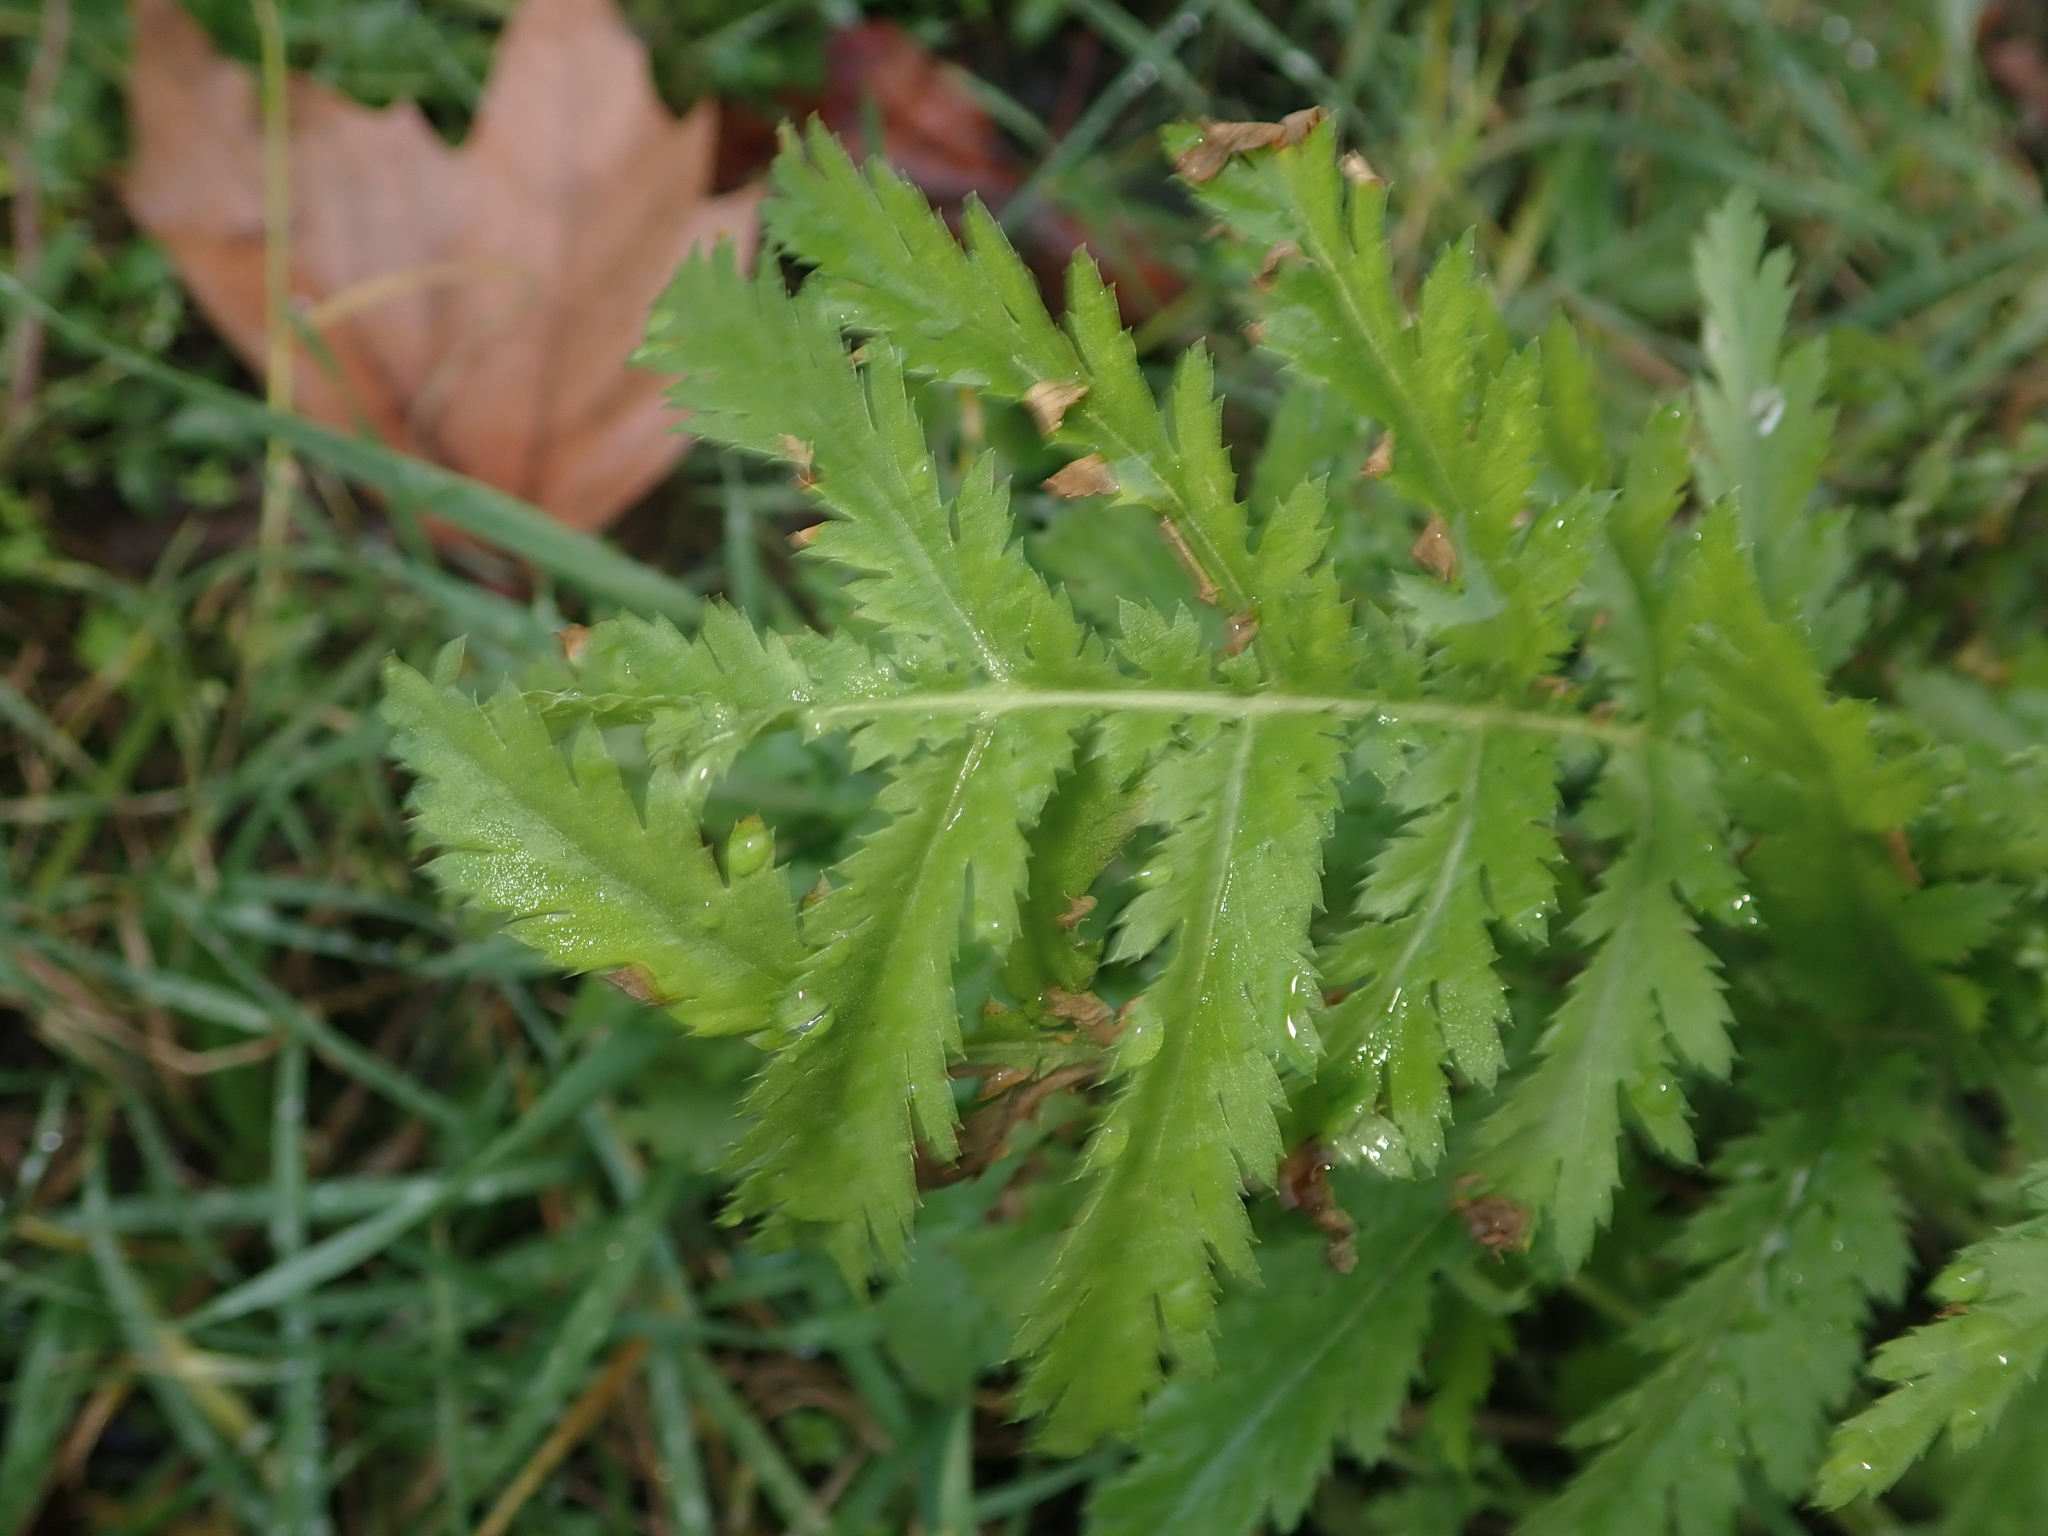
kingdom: Plantae
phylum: Tracheophyta
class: Magnoliopsida
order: Asterales
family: Asteraceae
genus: Tanacetum
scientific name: Tanacetum vulgare
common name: Common tansy
